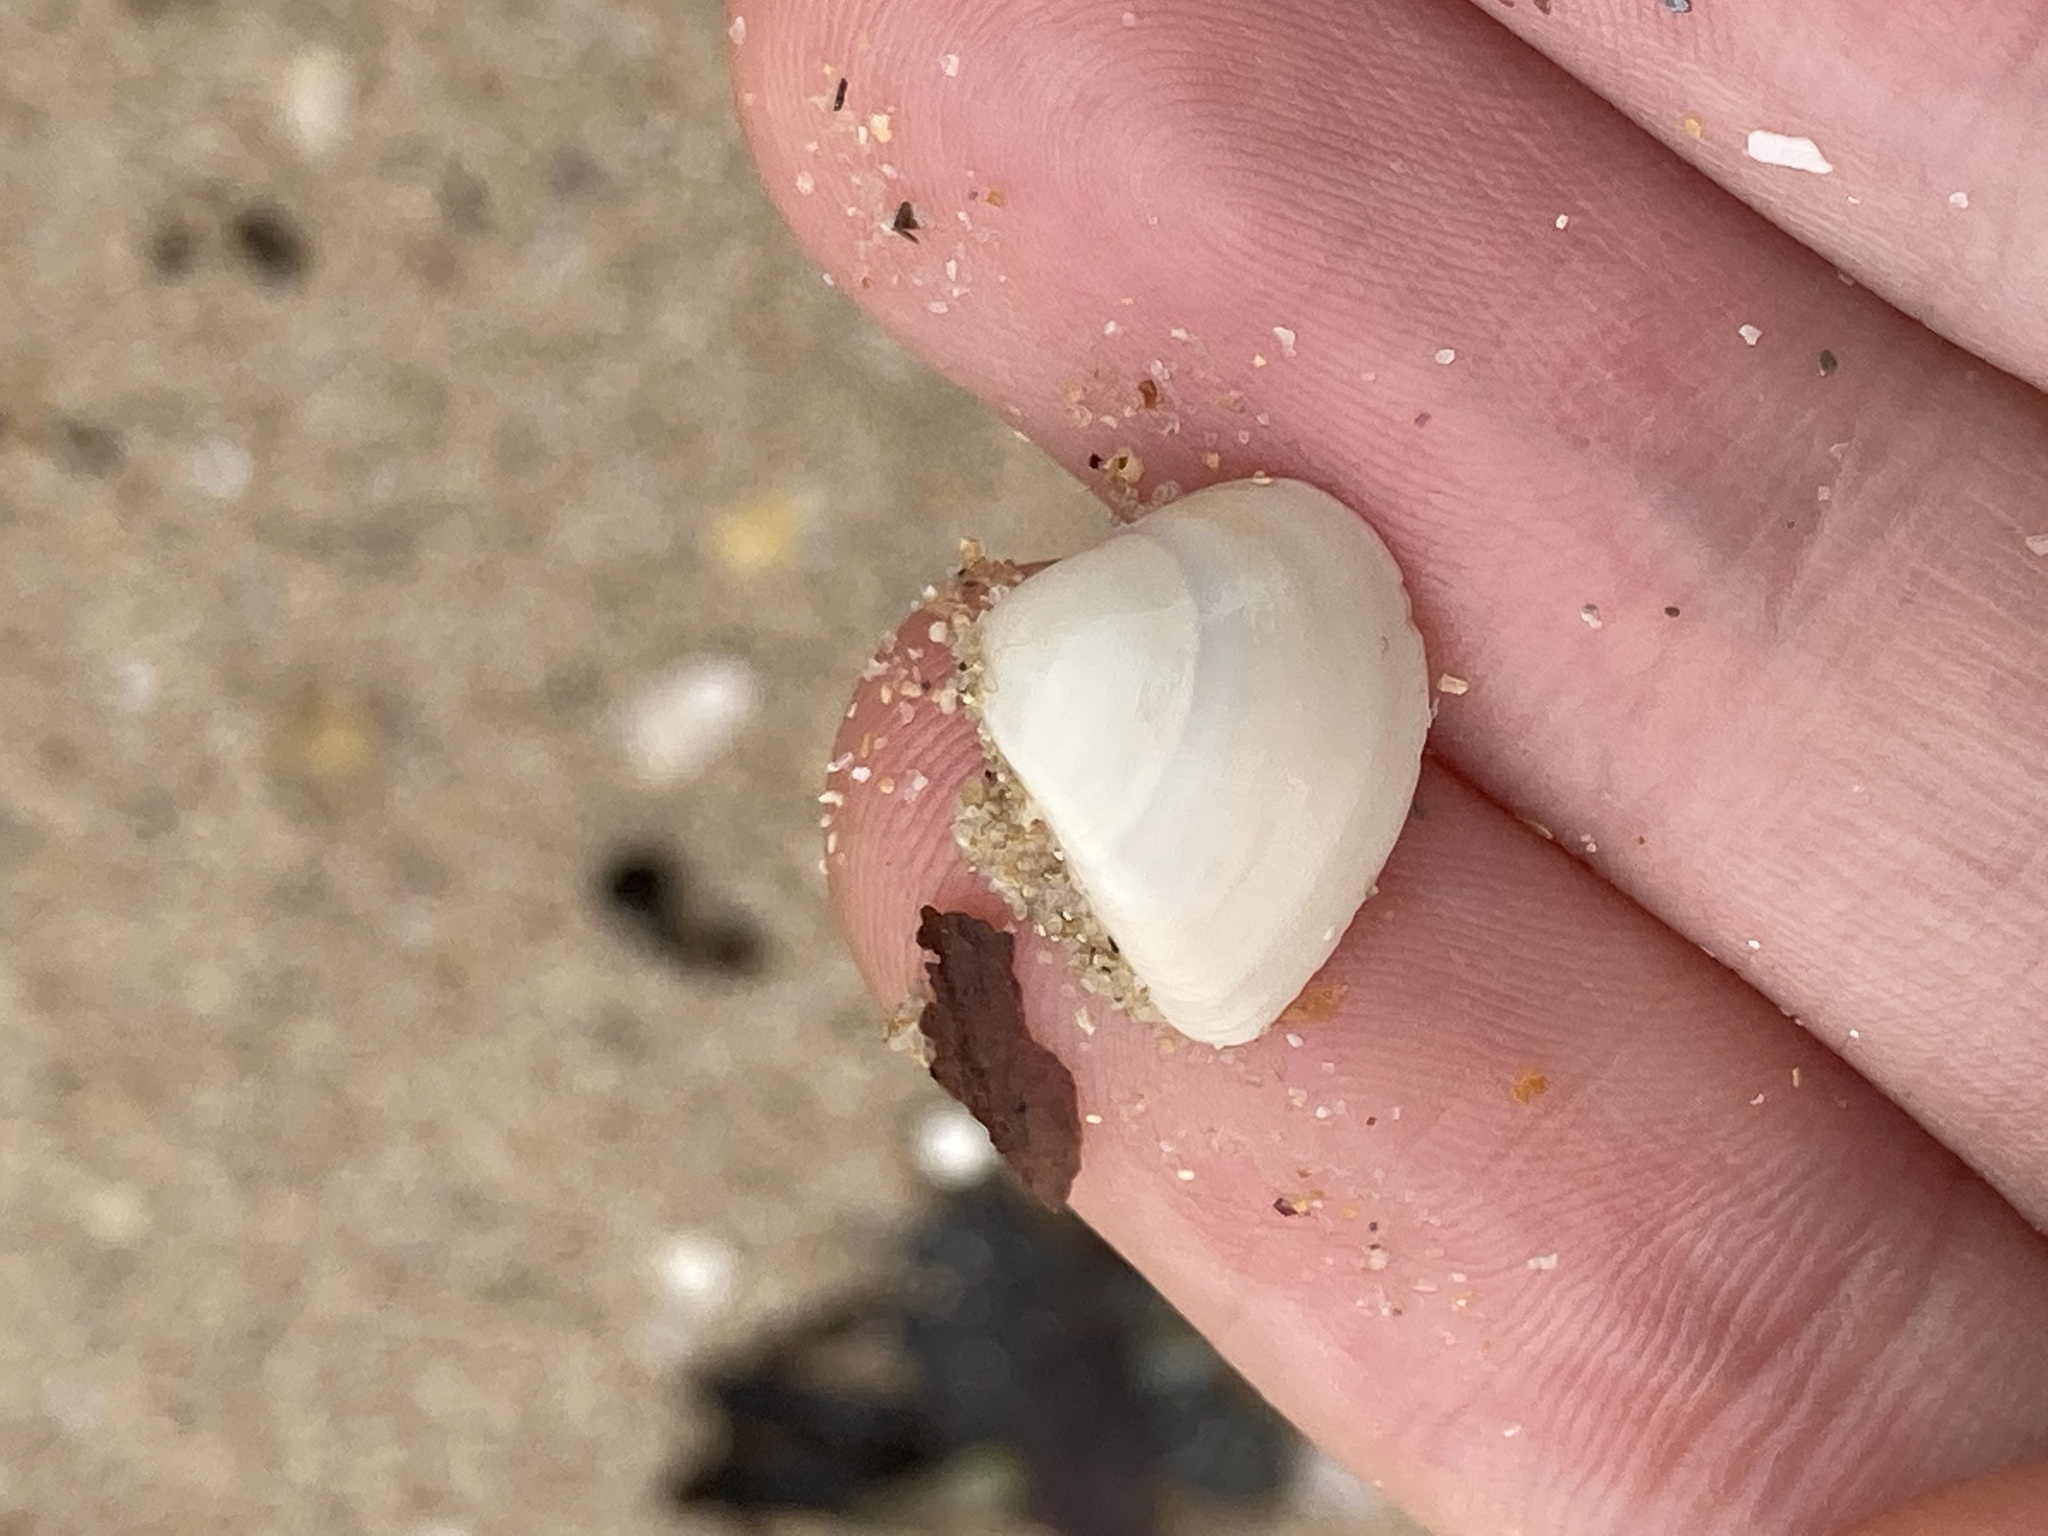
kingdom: Animalia
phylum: Mollusca
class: Bivalvia
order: Venerida
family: Mactridae
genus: Spisula
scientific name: Spisula trigonella
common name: Trigonal mactra
